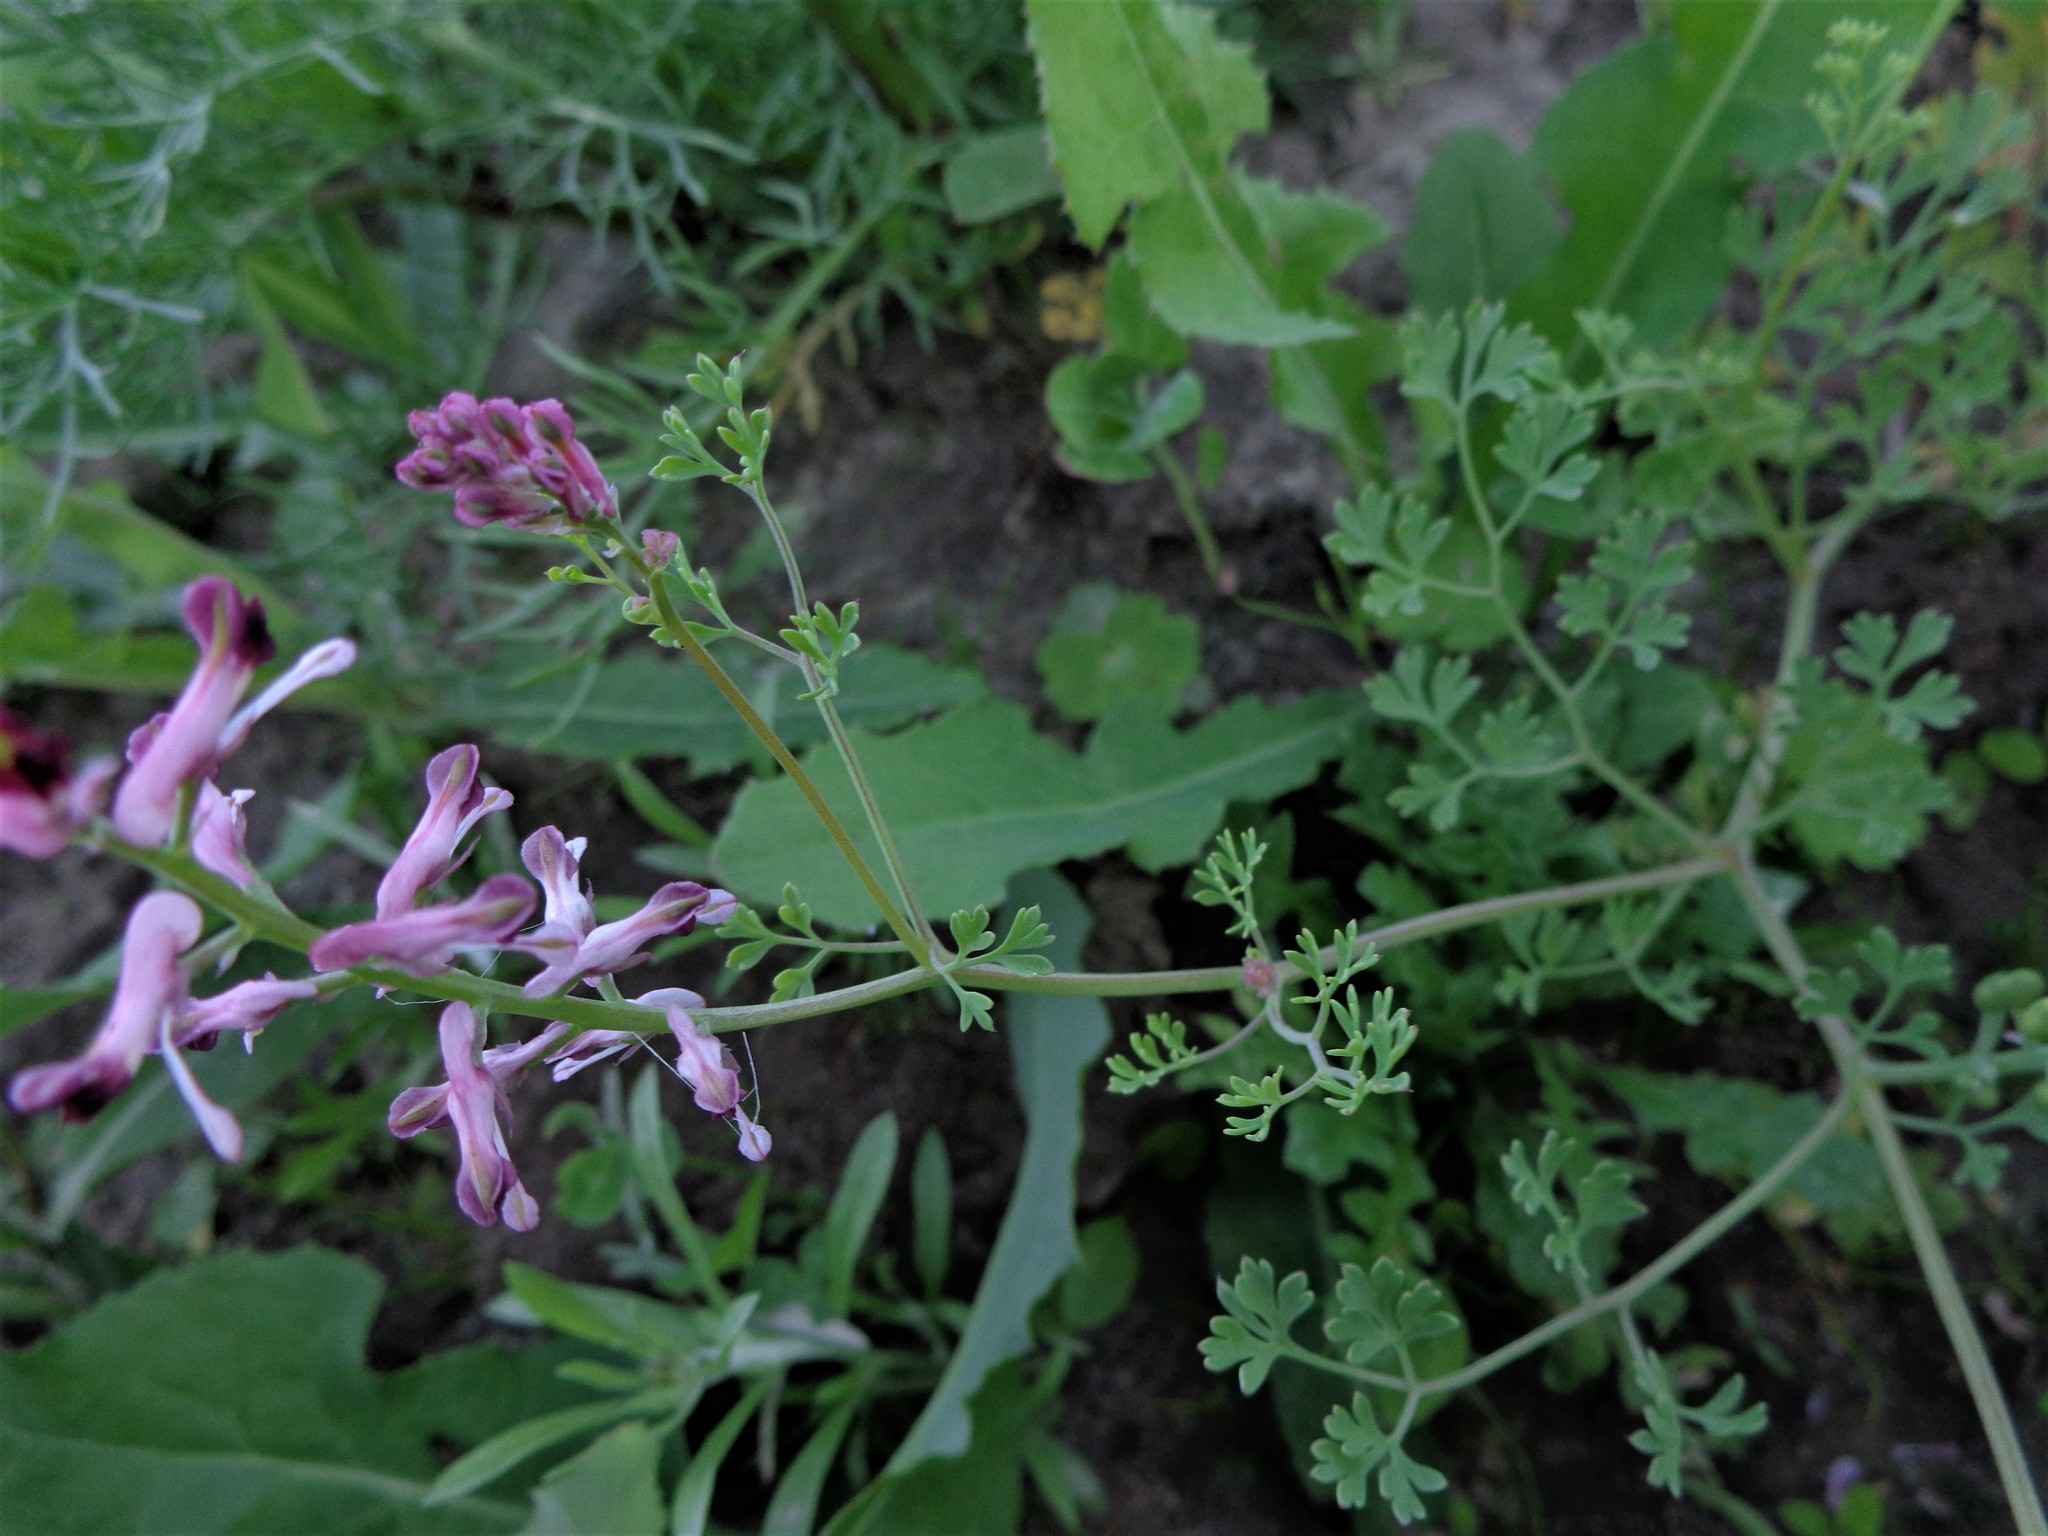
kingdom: Plantae
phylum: Tracheophyta
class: Magnoliopsida
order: Ranunculales
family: Papaveraceae
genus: Fumaria
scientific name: Fumaria officinalis
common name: Common fumitory
